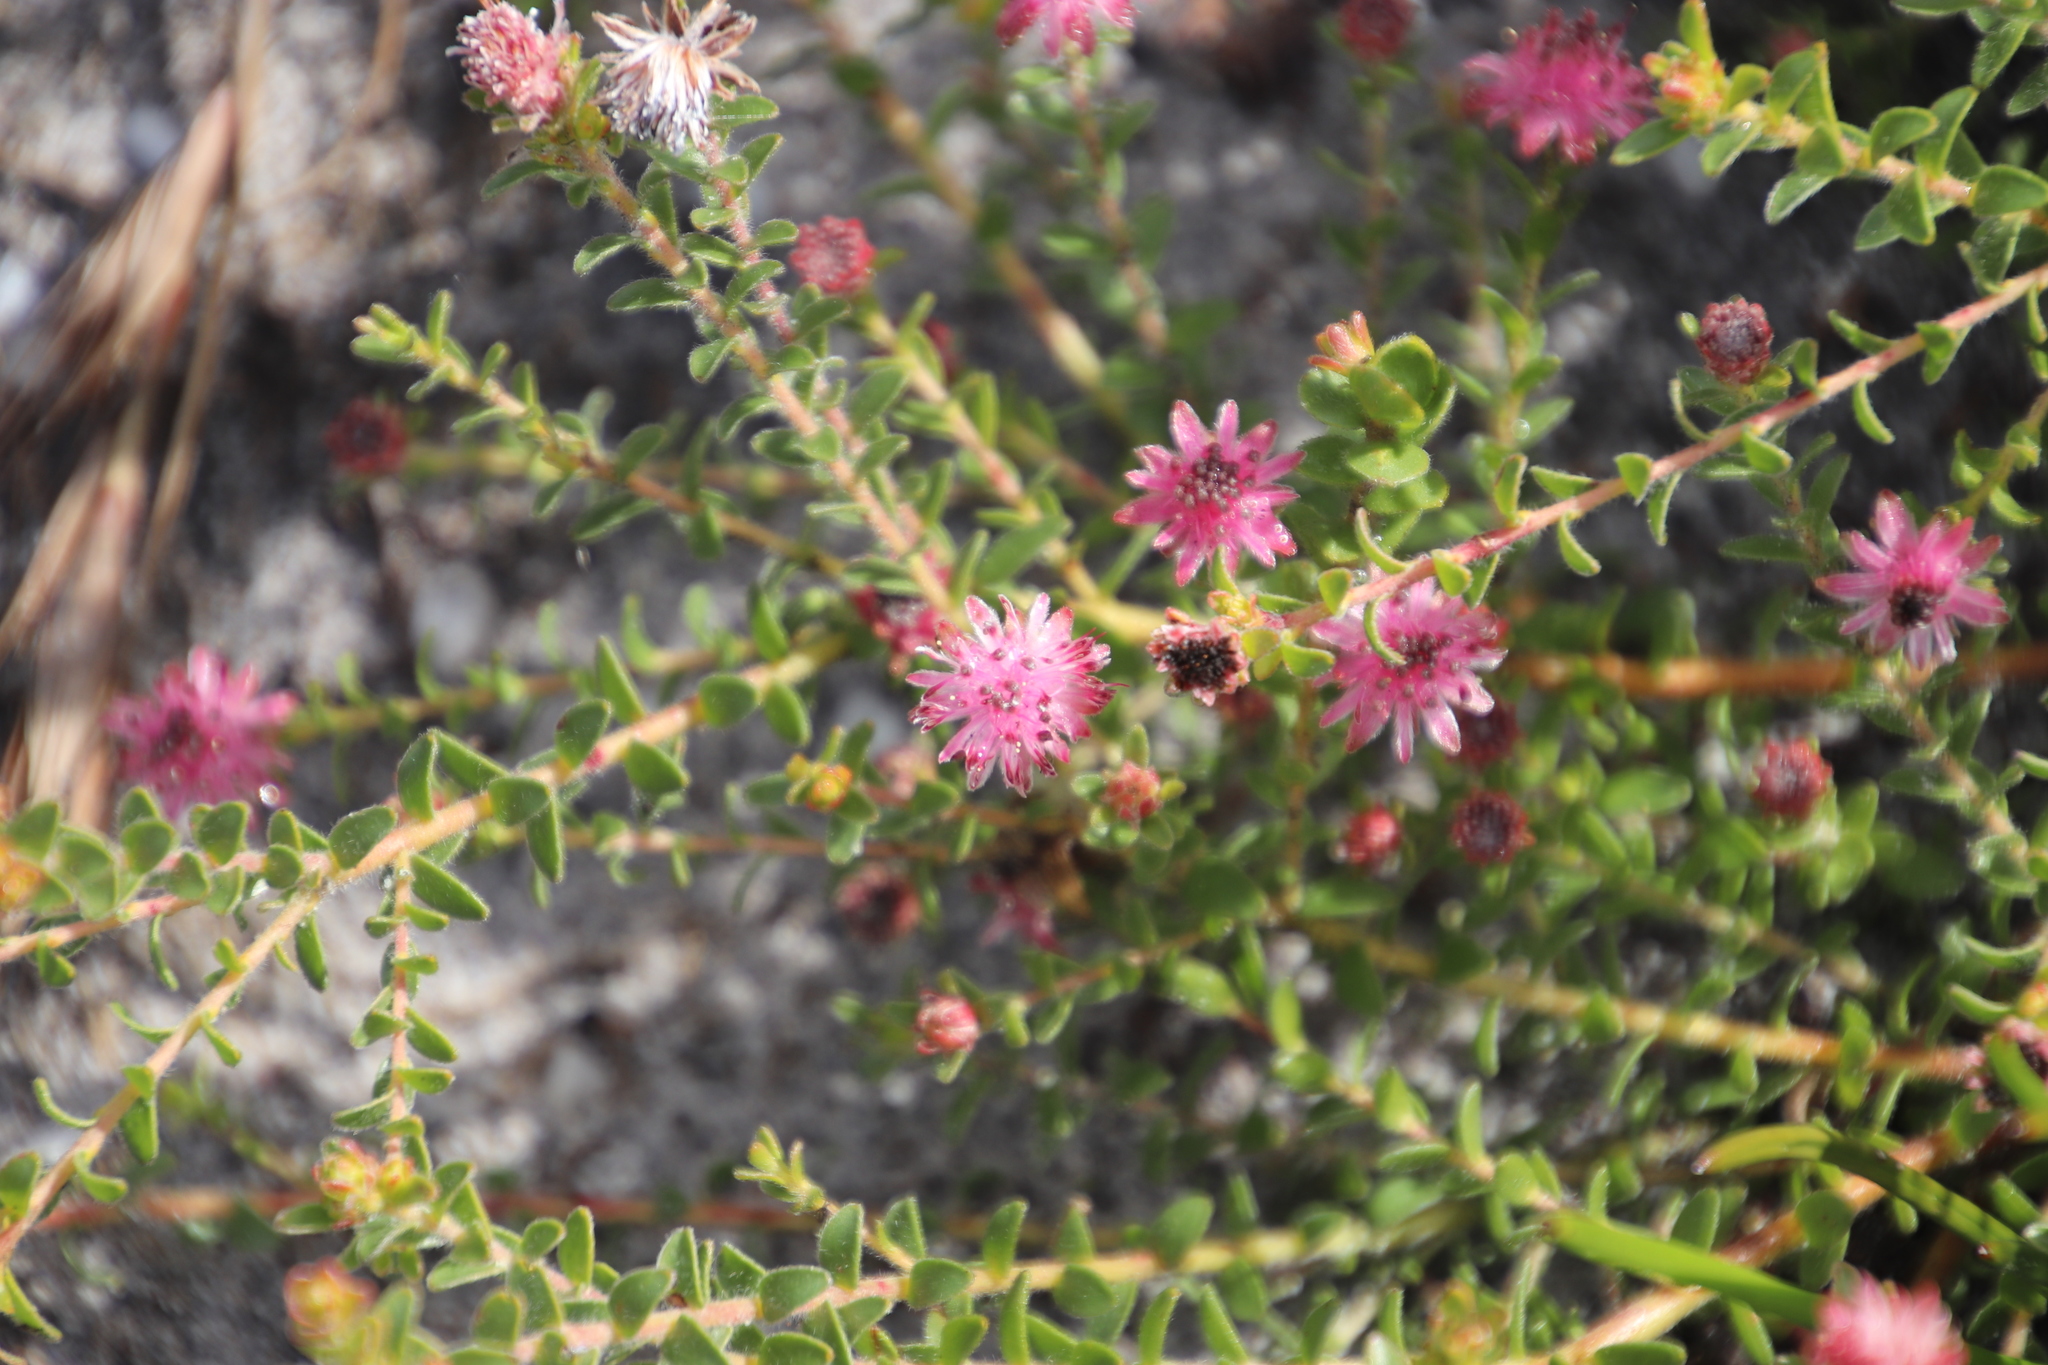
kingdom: Plantae
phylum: Tracheophyta
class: Magnoliopsida
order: Proteales
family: Proteaceae
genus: Diastella
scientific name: Diastella divaricata
